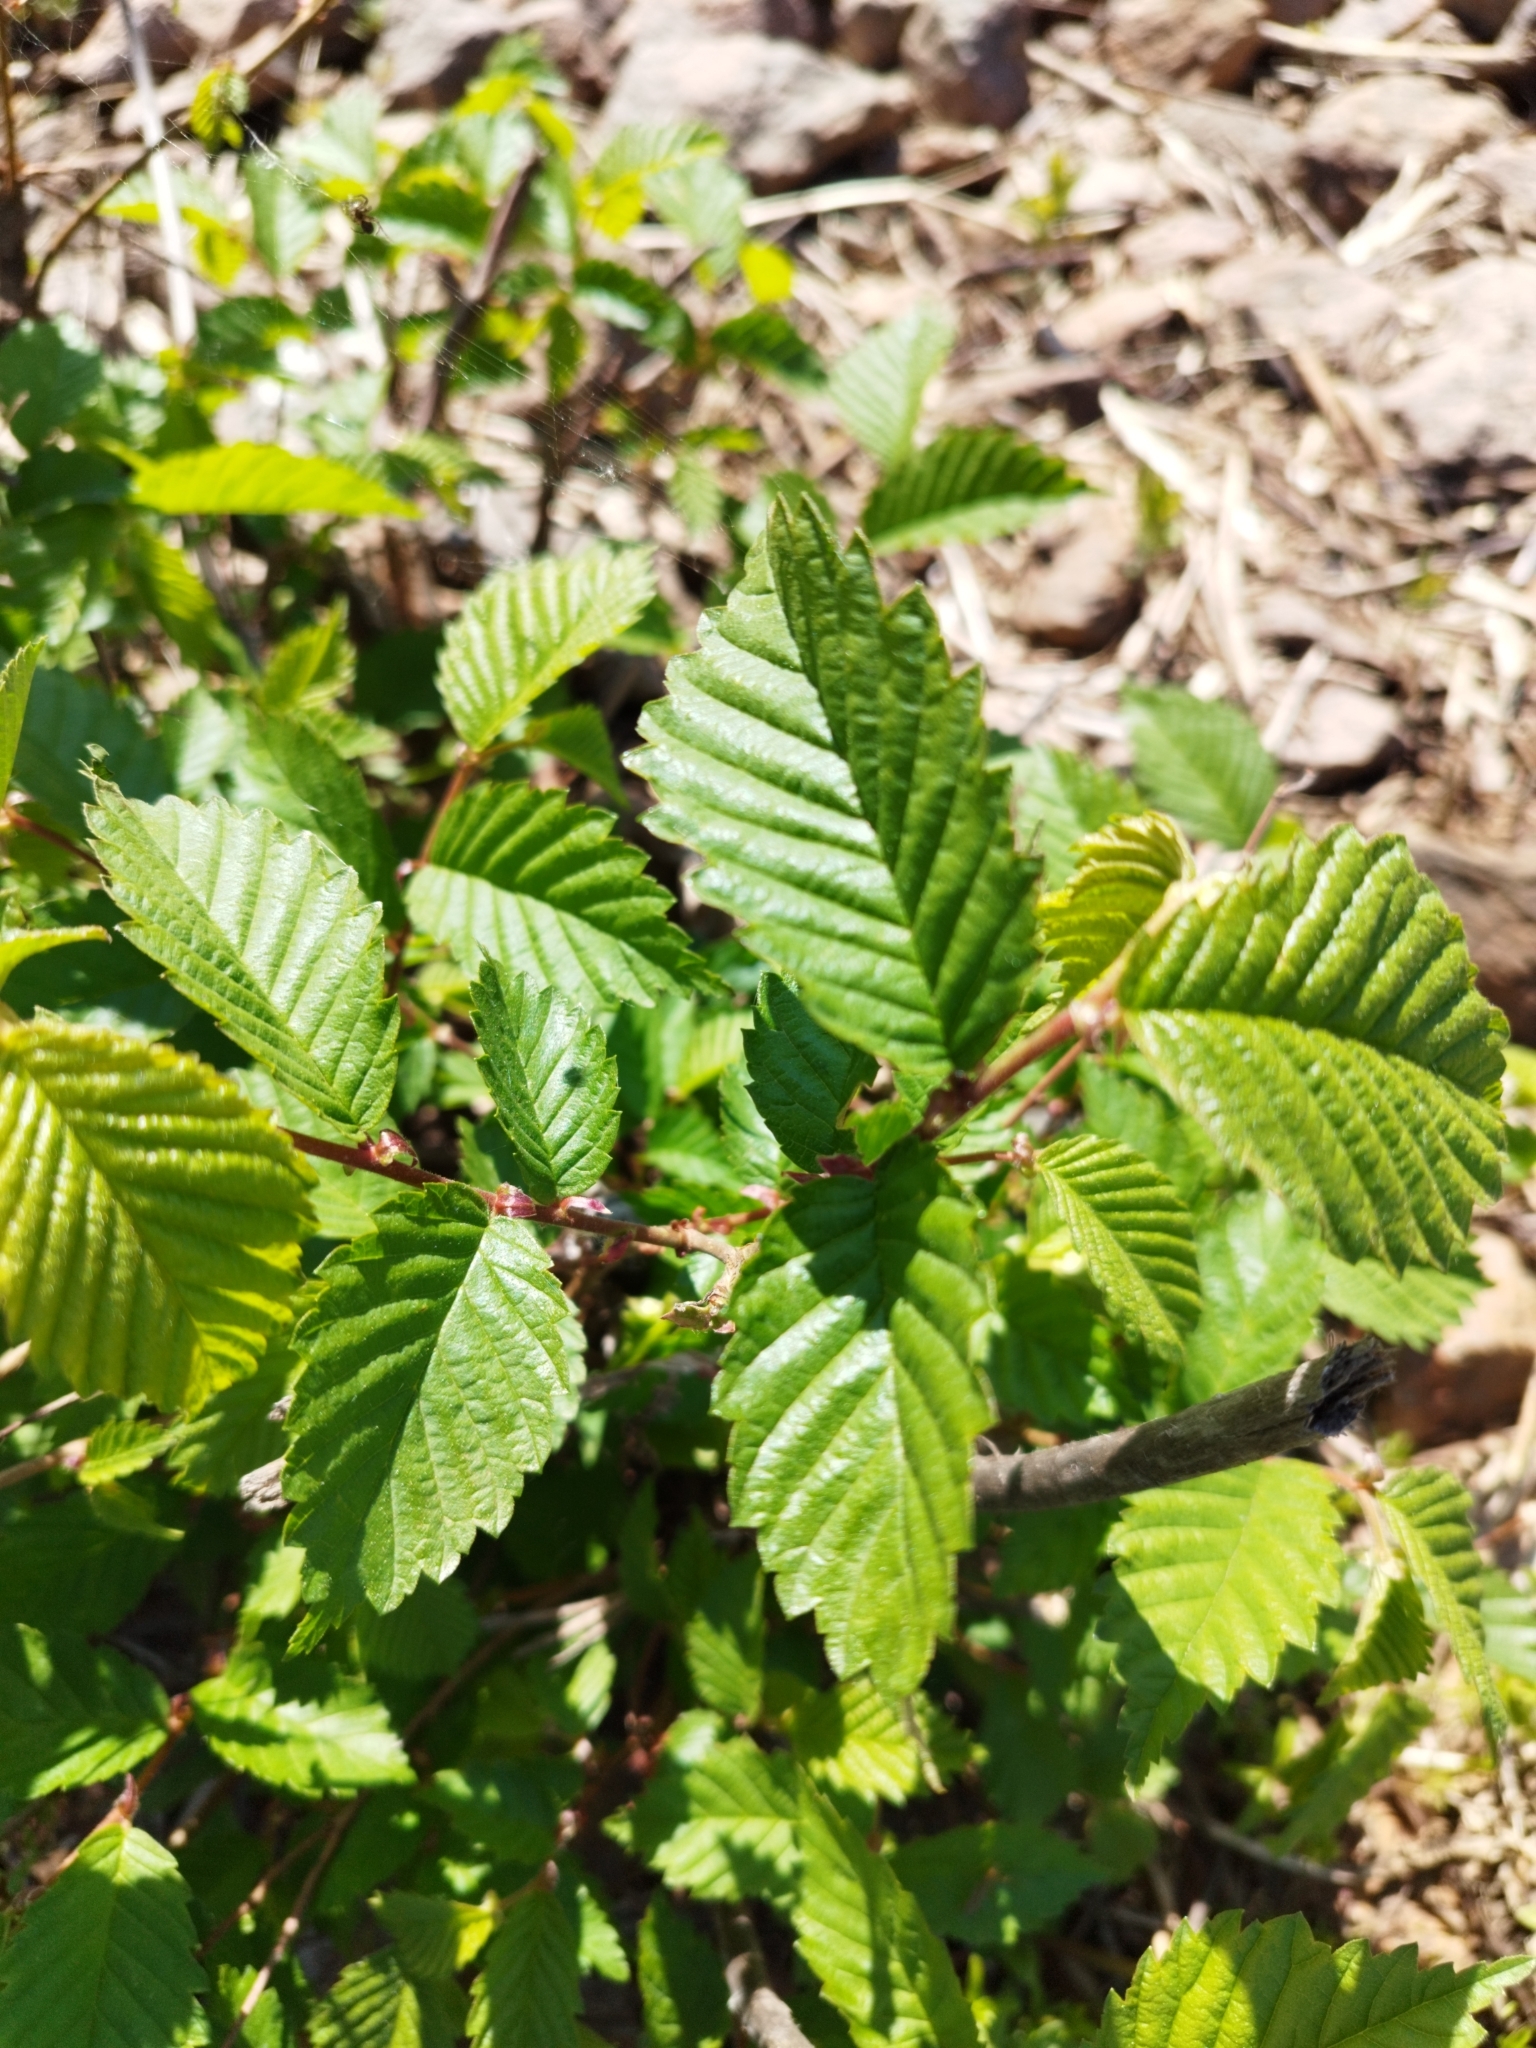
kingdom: Plantae
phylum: Tracheophyta
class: Magnoliopsida
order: Rosales
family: Ulmaceae
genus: Ulmus
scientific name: Ulmus laevis
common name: European white-elm
